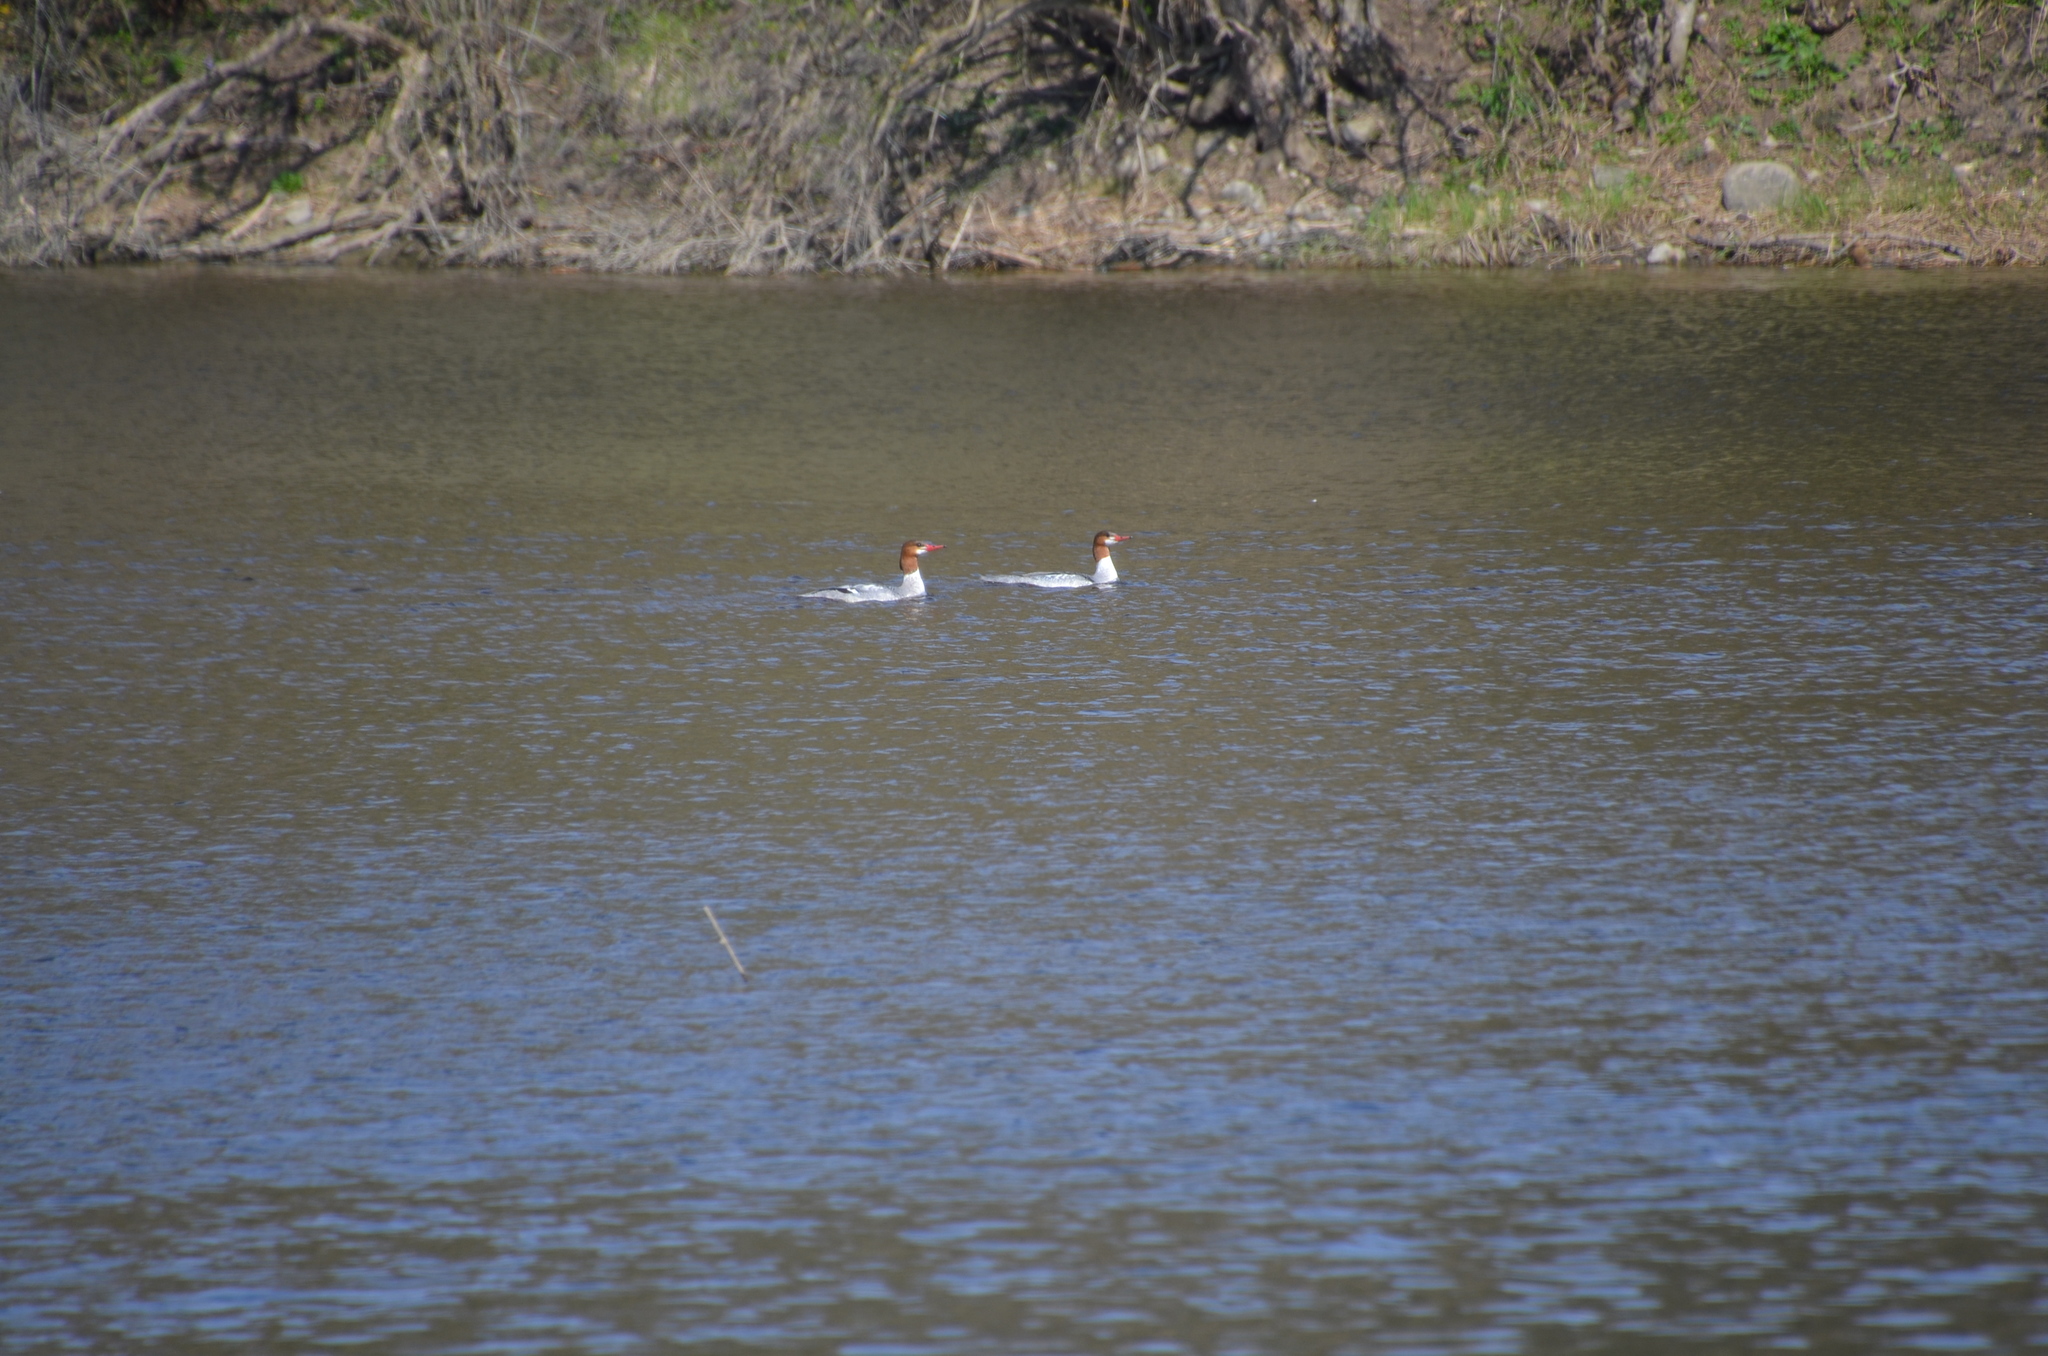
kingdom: Animalia
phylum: Chordata
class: Aves
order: Anseriformes
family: Anatidae
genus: Mergus
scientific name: Mergus merganser
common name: Common merganser
